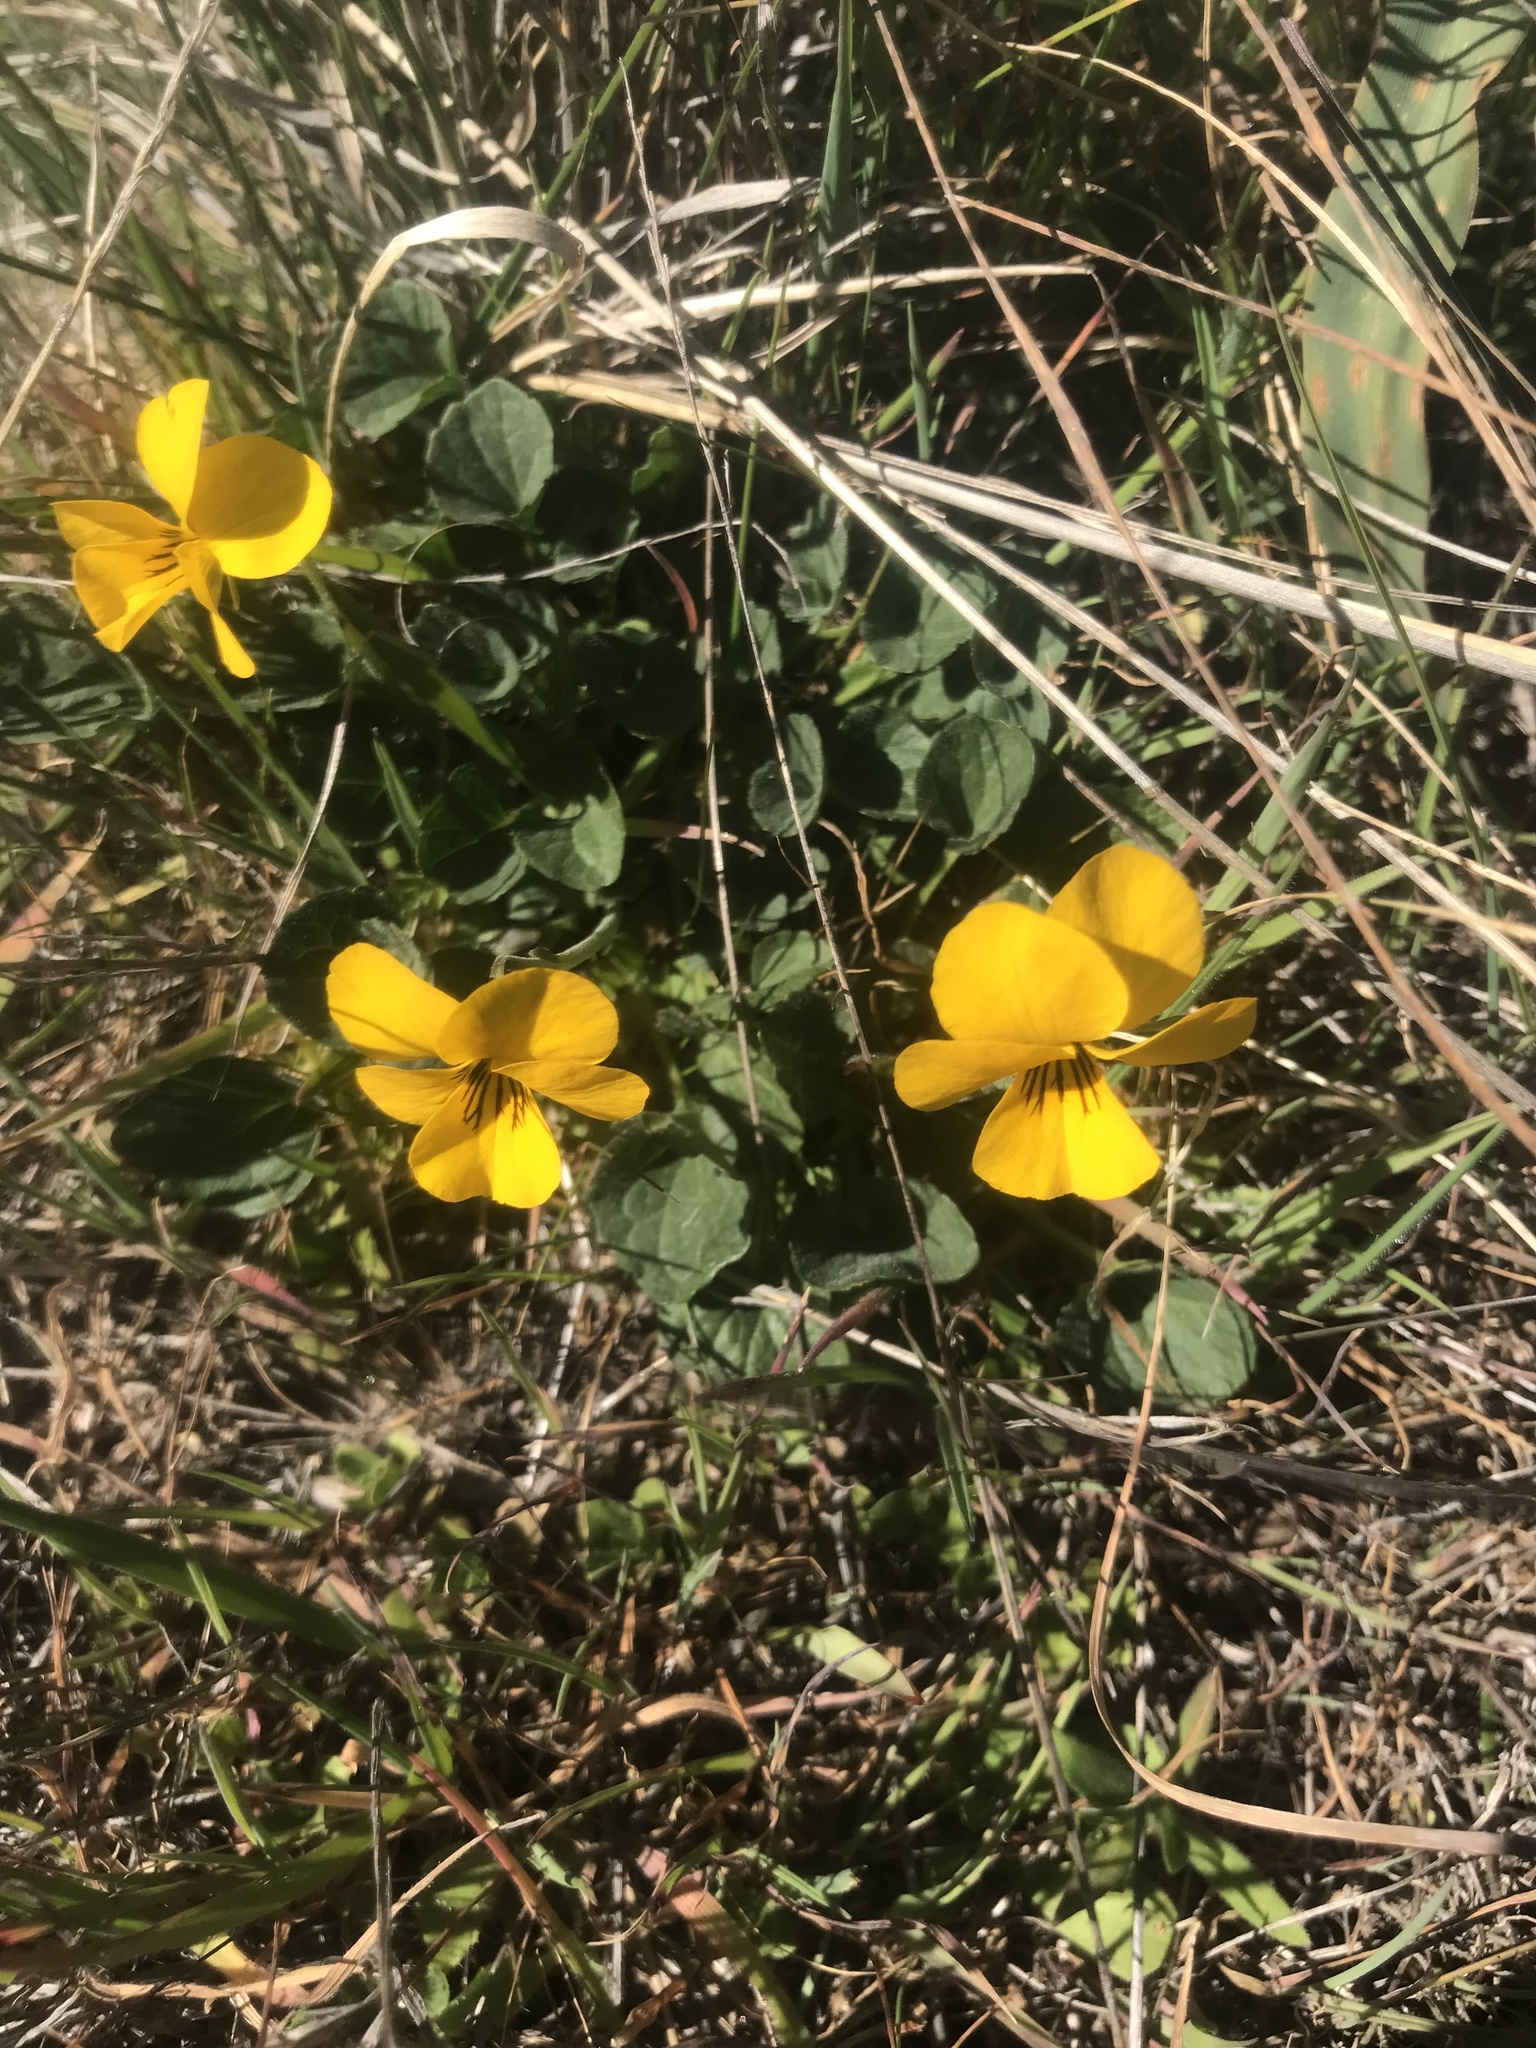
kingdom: Plantae
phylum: Tracheophyta
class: Magnoliopsida
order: Malpighiales
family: Violaceae
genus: Viola
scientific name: Viola pedunculata
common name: California golden violet
